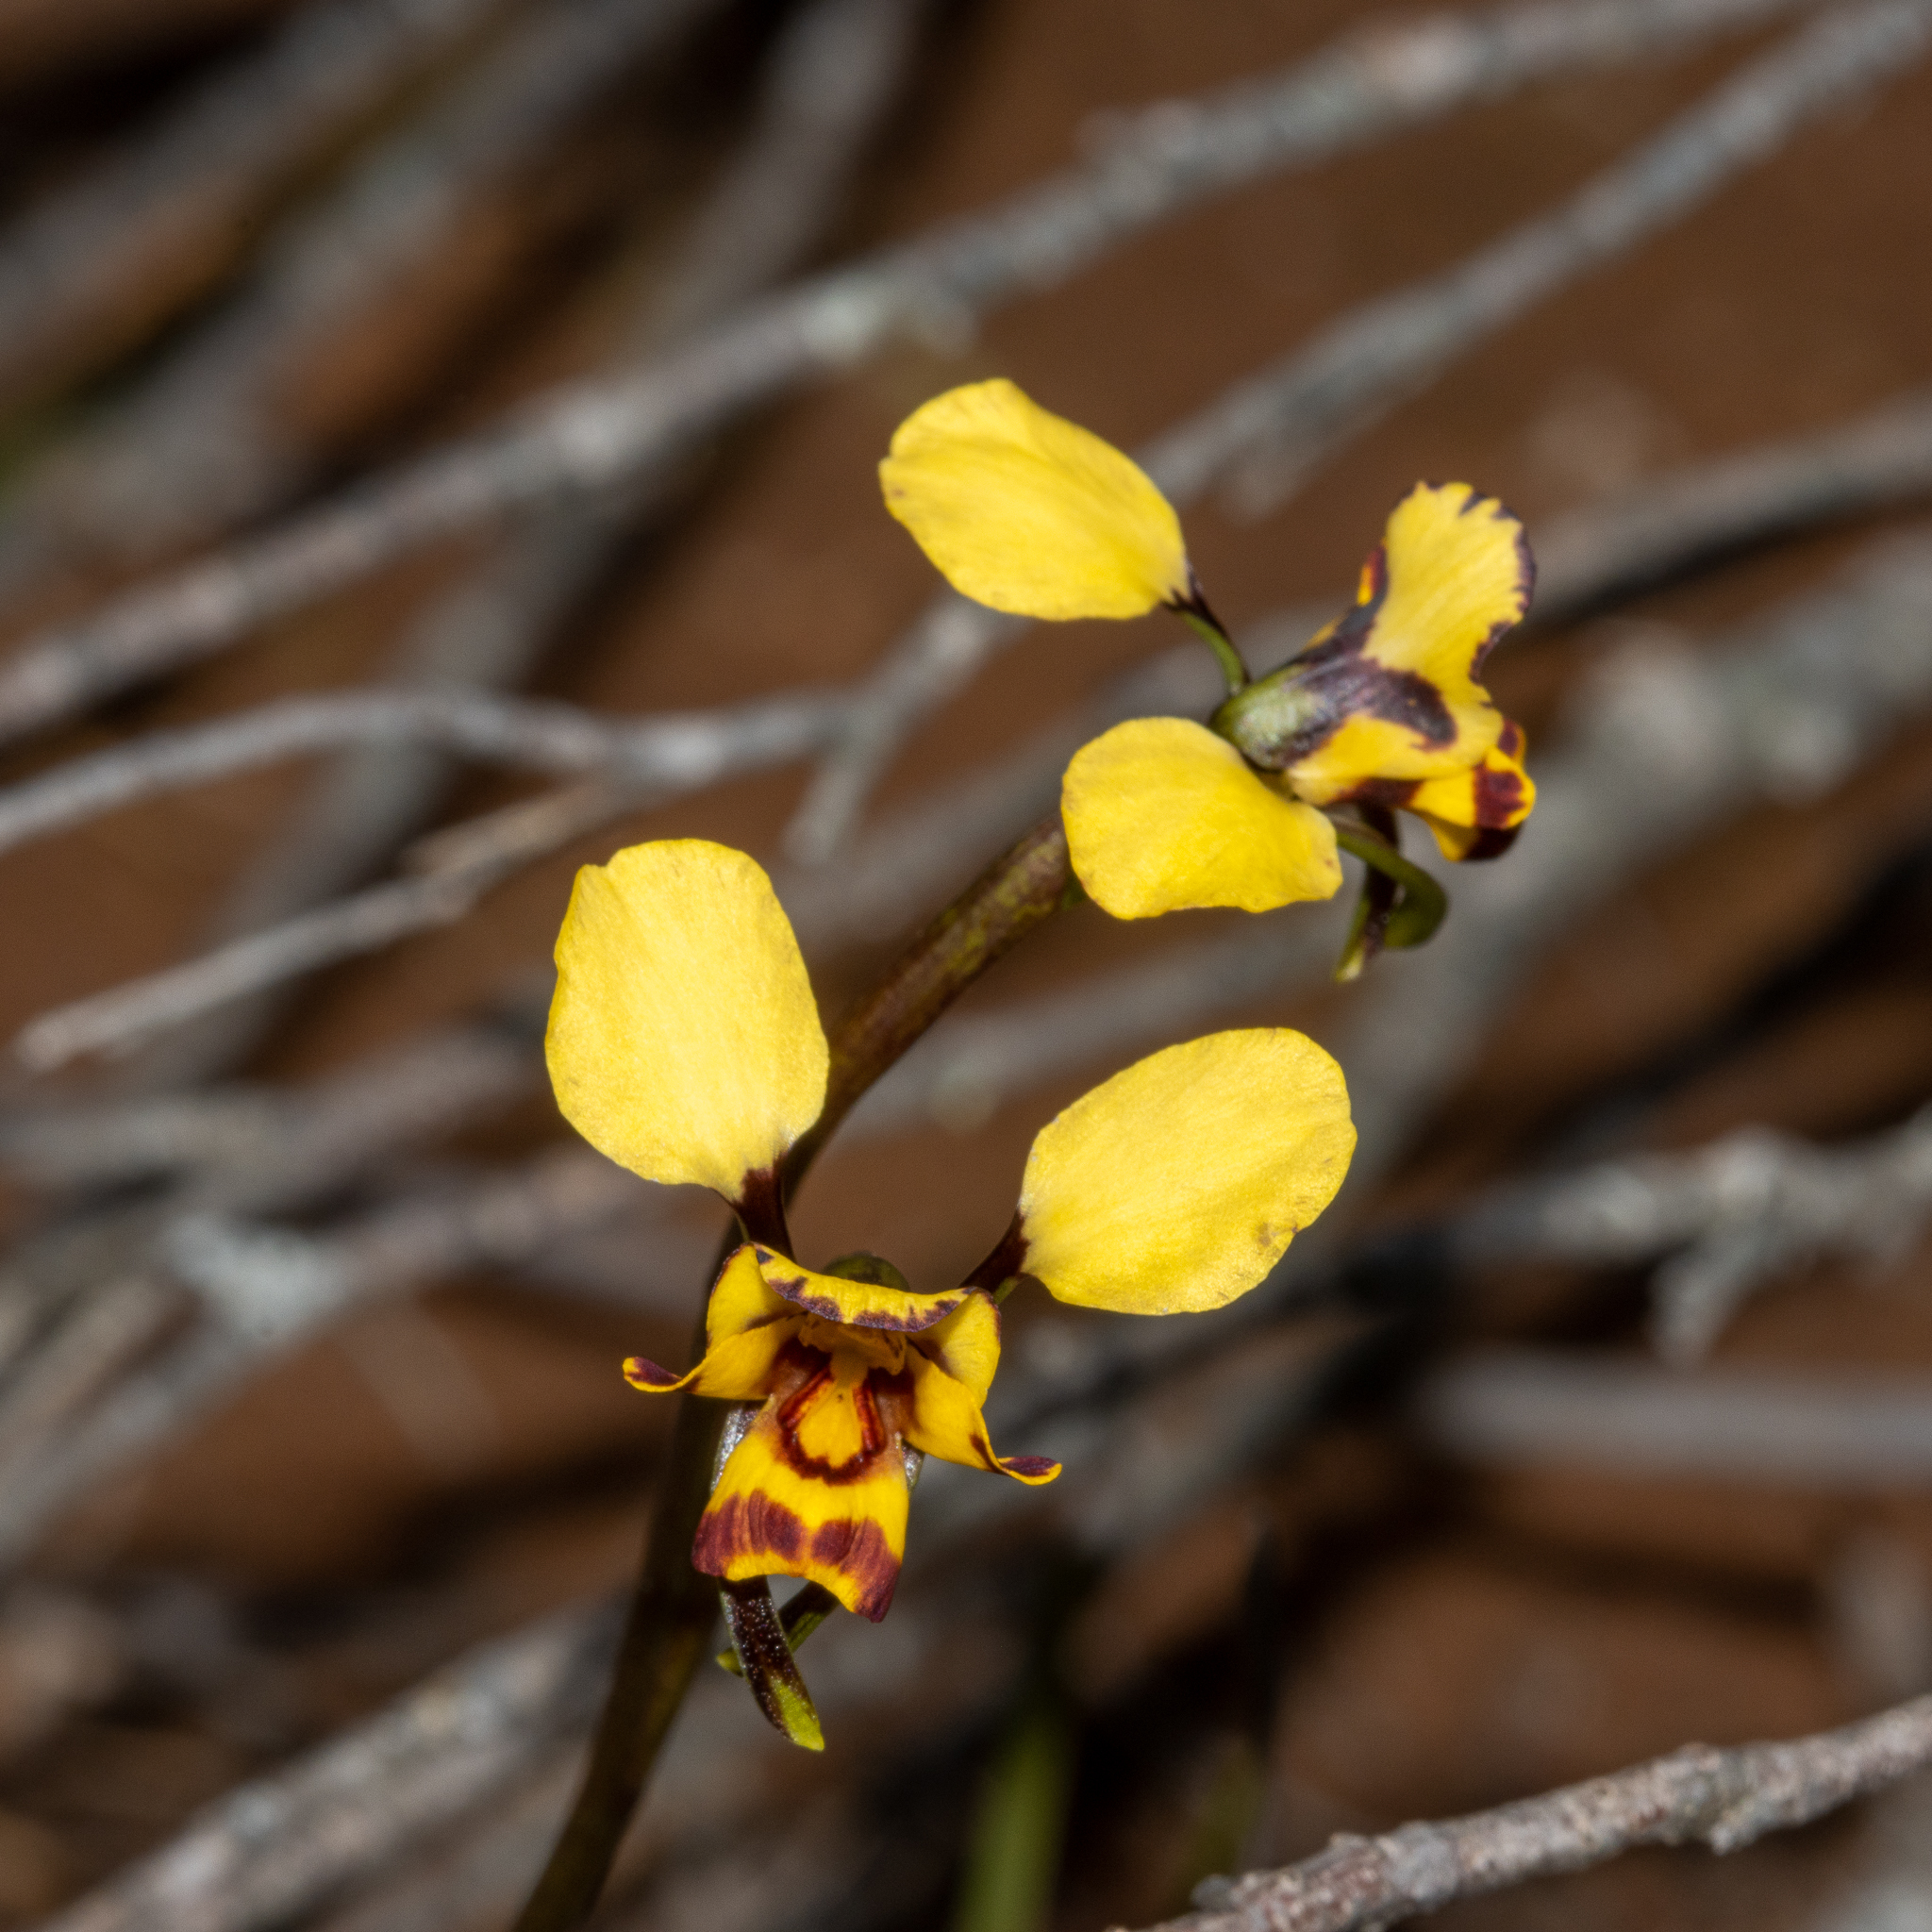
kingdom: Plantae
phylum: Tracheophyta
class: Liliopsida
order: Asparagales
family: Orchidaceae
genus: Diuris
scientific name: Diuris pardina
